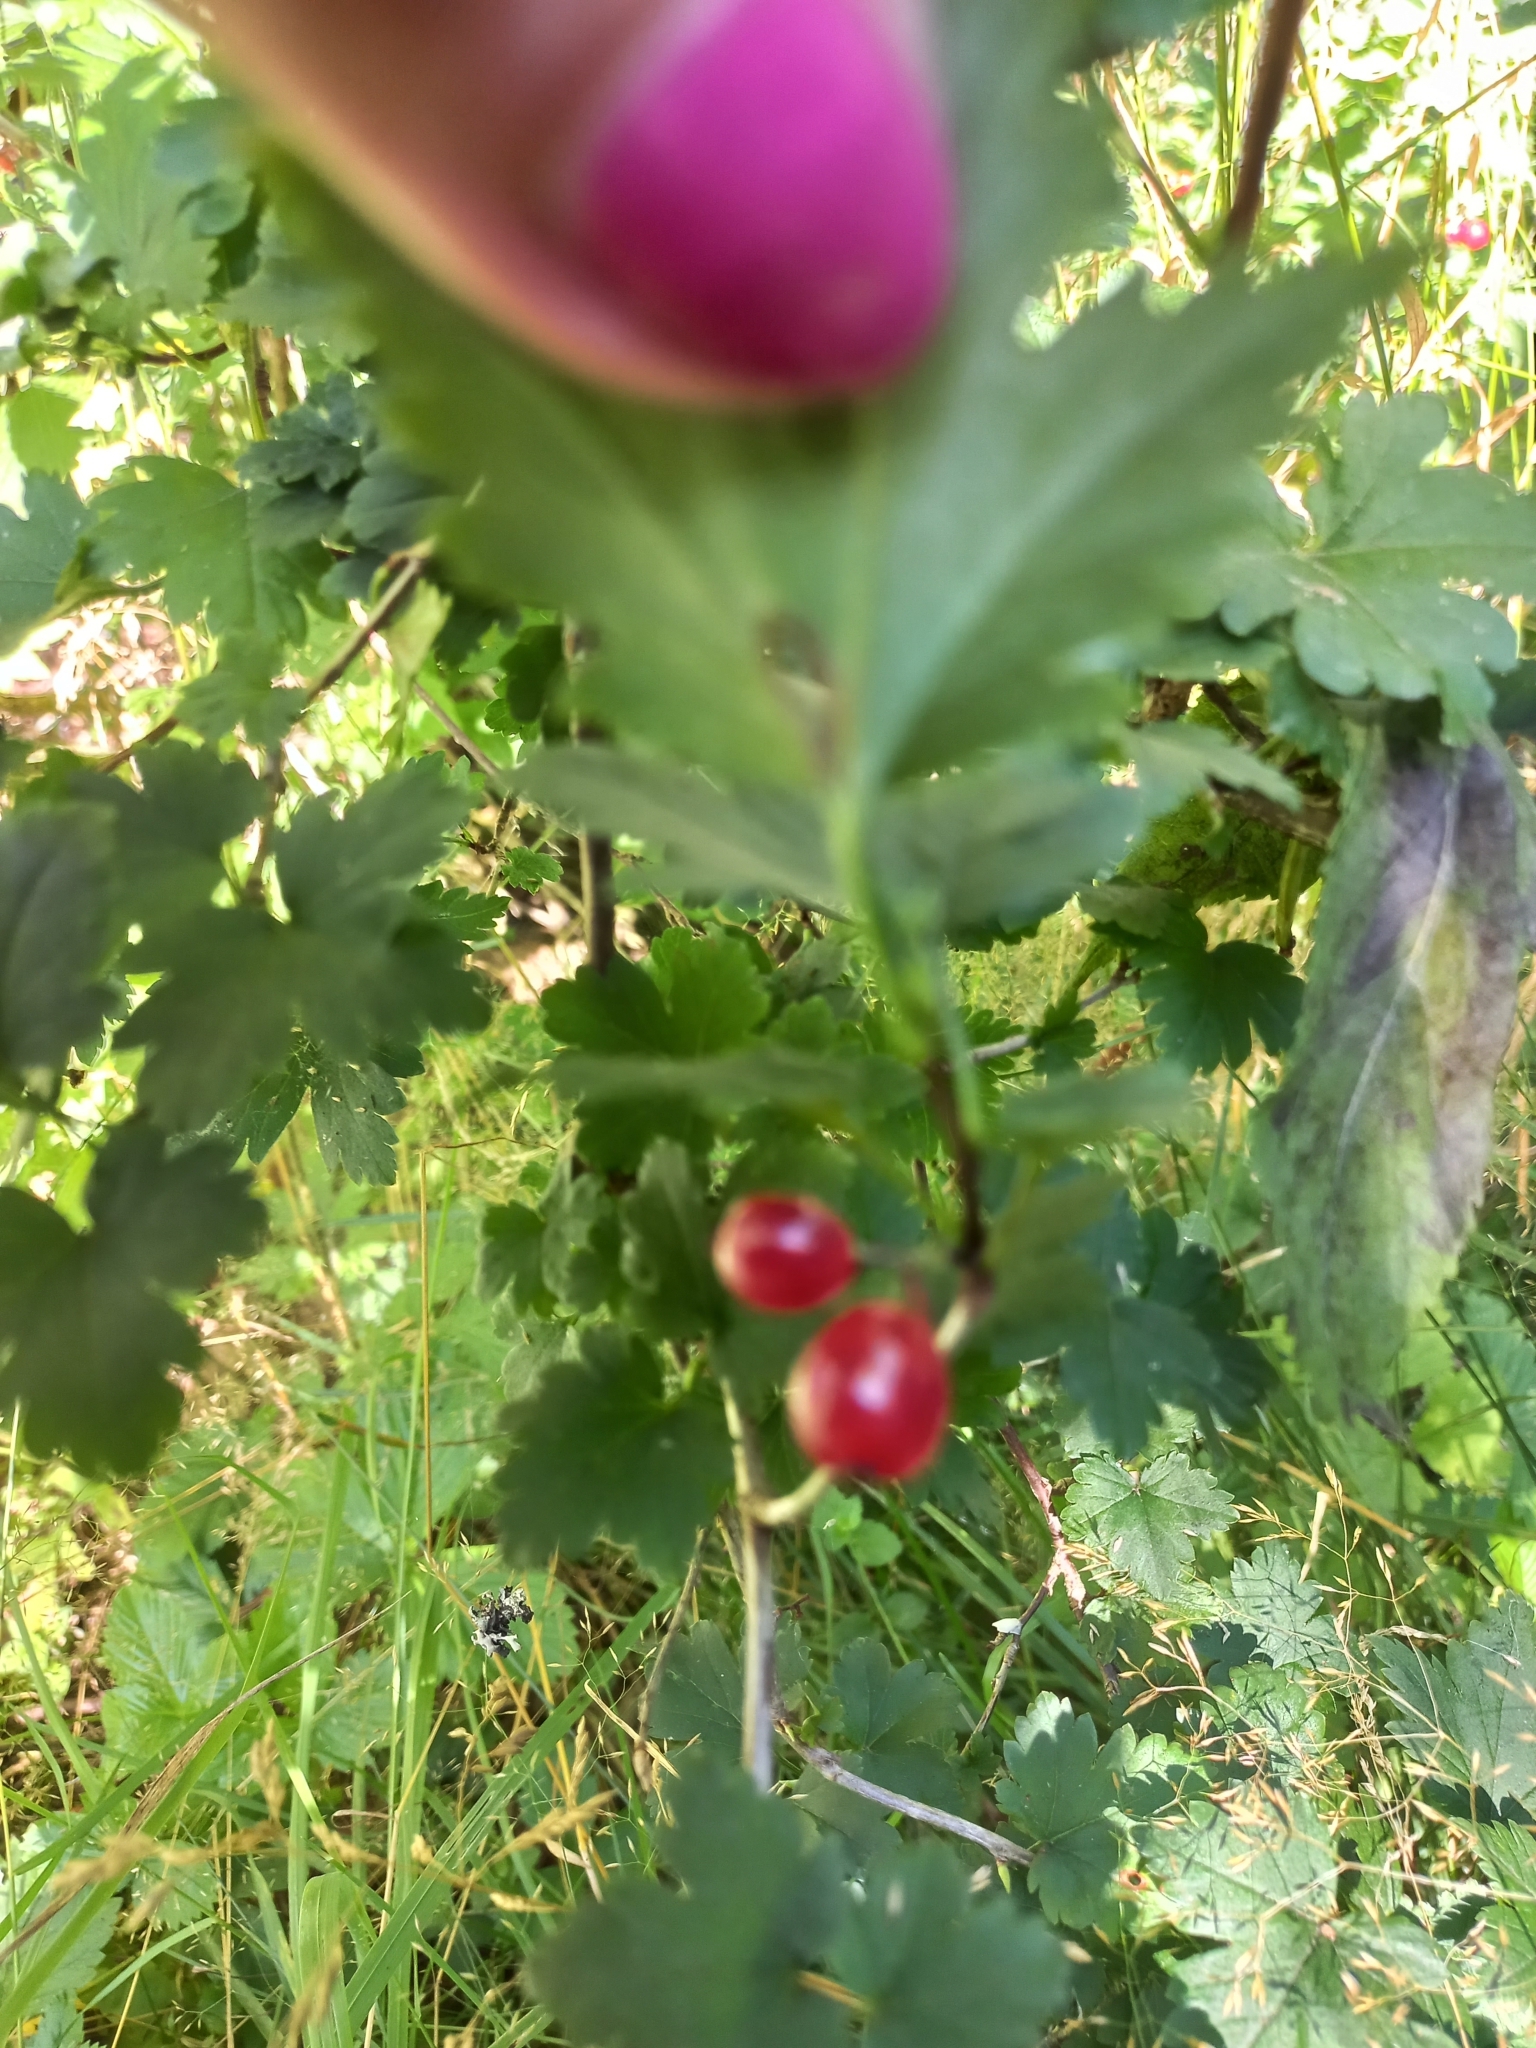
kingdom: Plantae
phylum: Tracheophyta
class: Magnoliopsida
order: Saxifragales
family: Grossulariaceae
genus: Ribes
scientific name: Ribes alpinum
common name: Alpine currant
